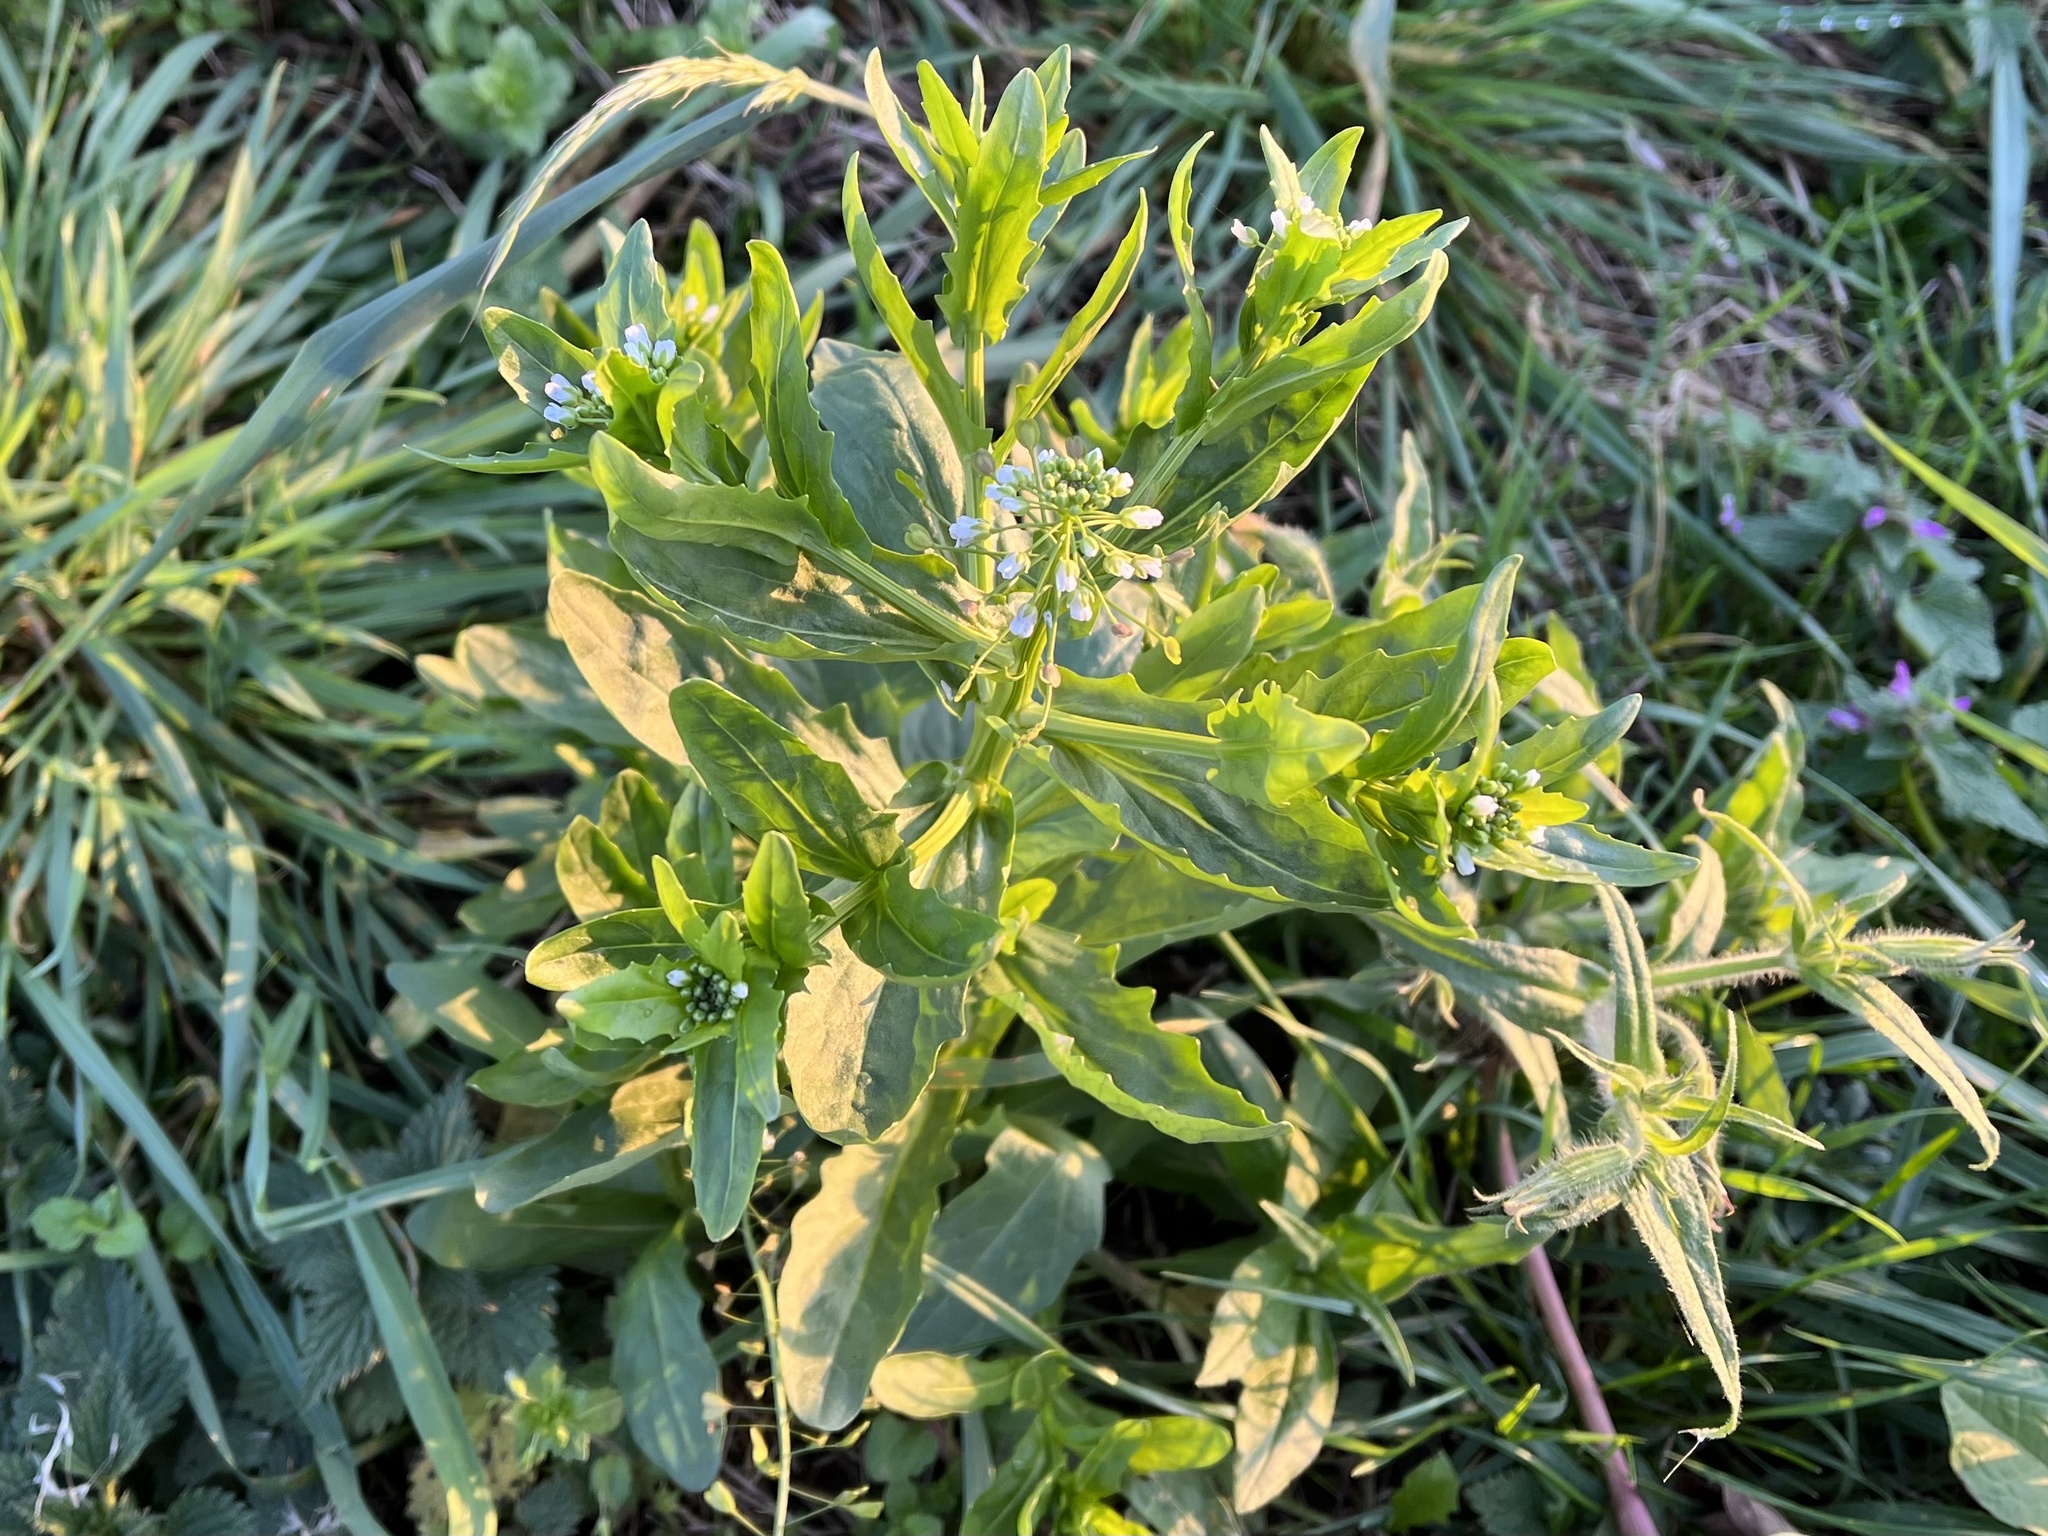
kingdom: Plantae
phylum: Tracheophyta
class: Magnoliopsida
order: Brassicales
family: Brassicaceae
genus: Thlaspi
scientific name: Thlaspi arvense
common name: Field pennycress
